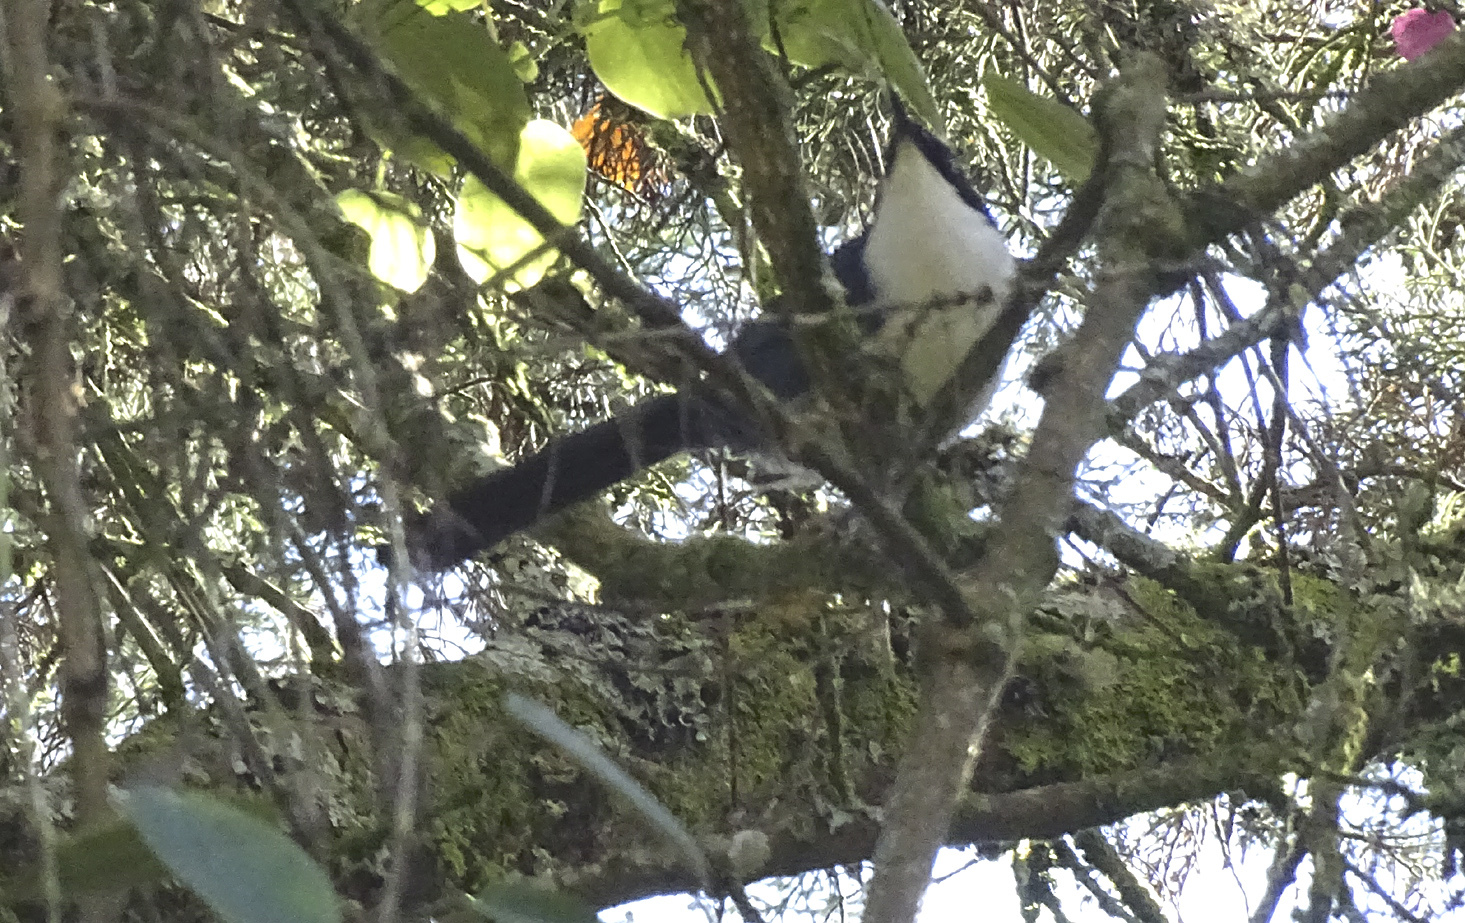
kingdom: Animalia
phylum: Chordata
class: Aves
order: Passeriformes
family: Mimidae
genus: Melanotis
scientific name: Melanotis hypoleucus
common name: Blue-and-white mockingbird
